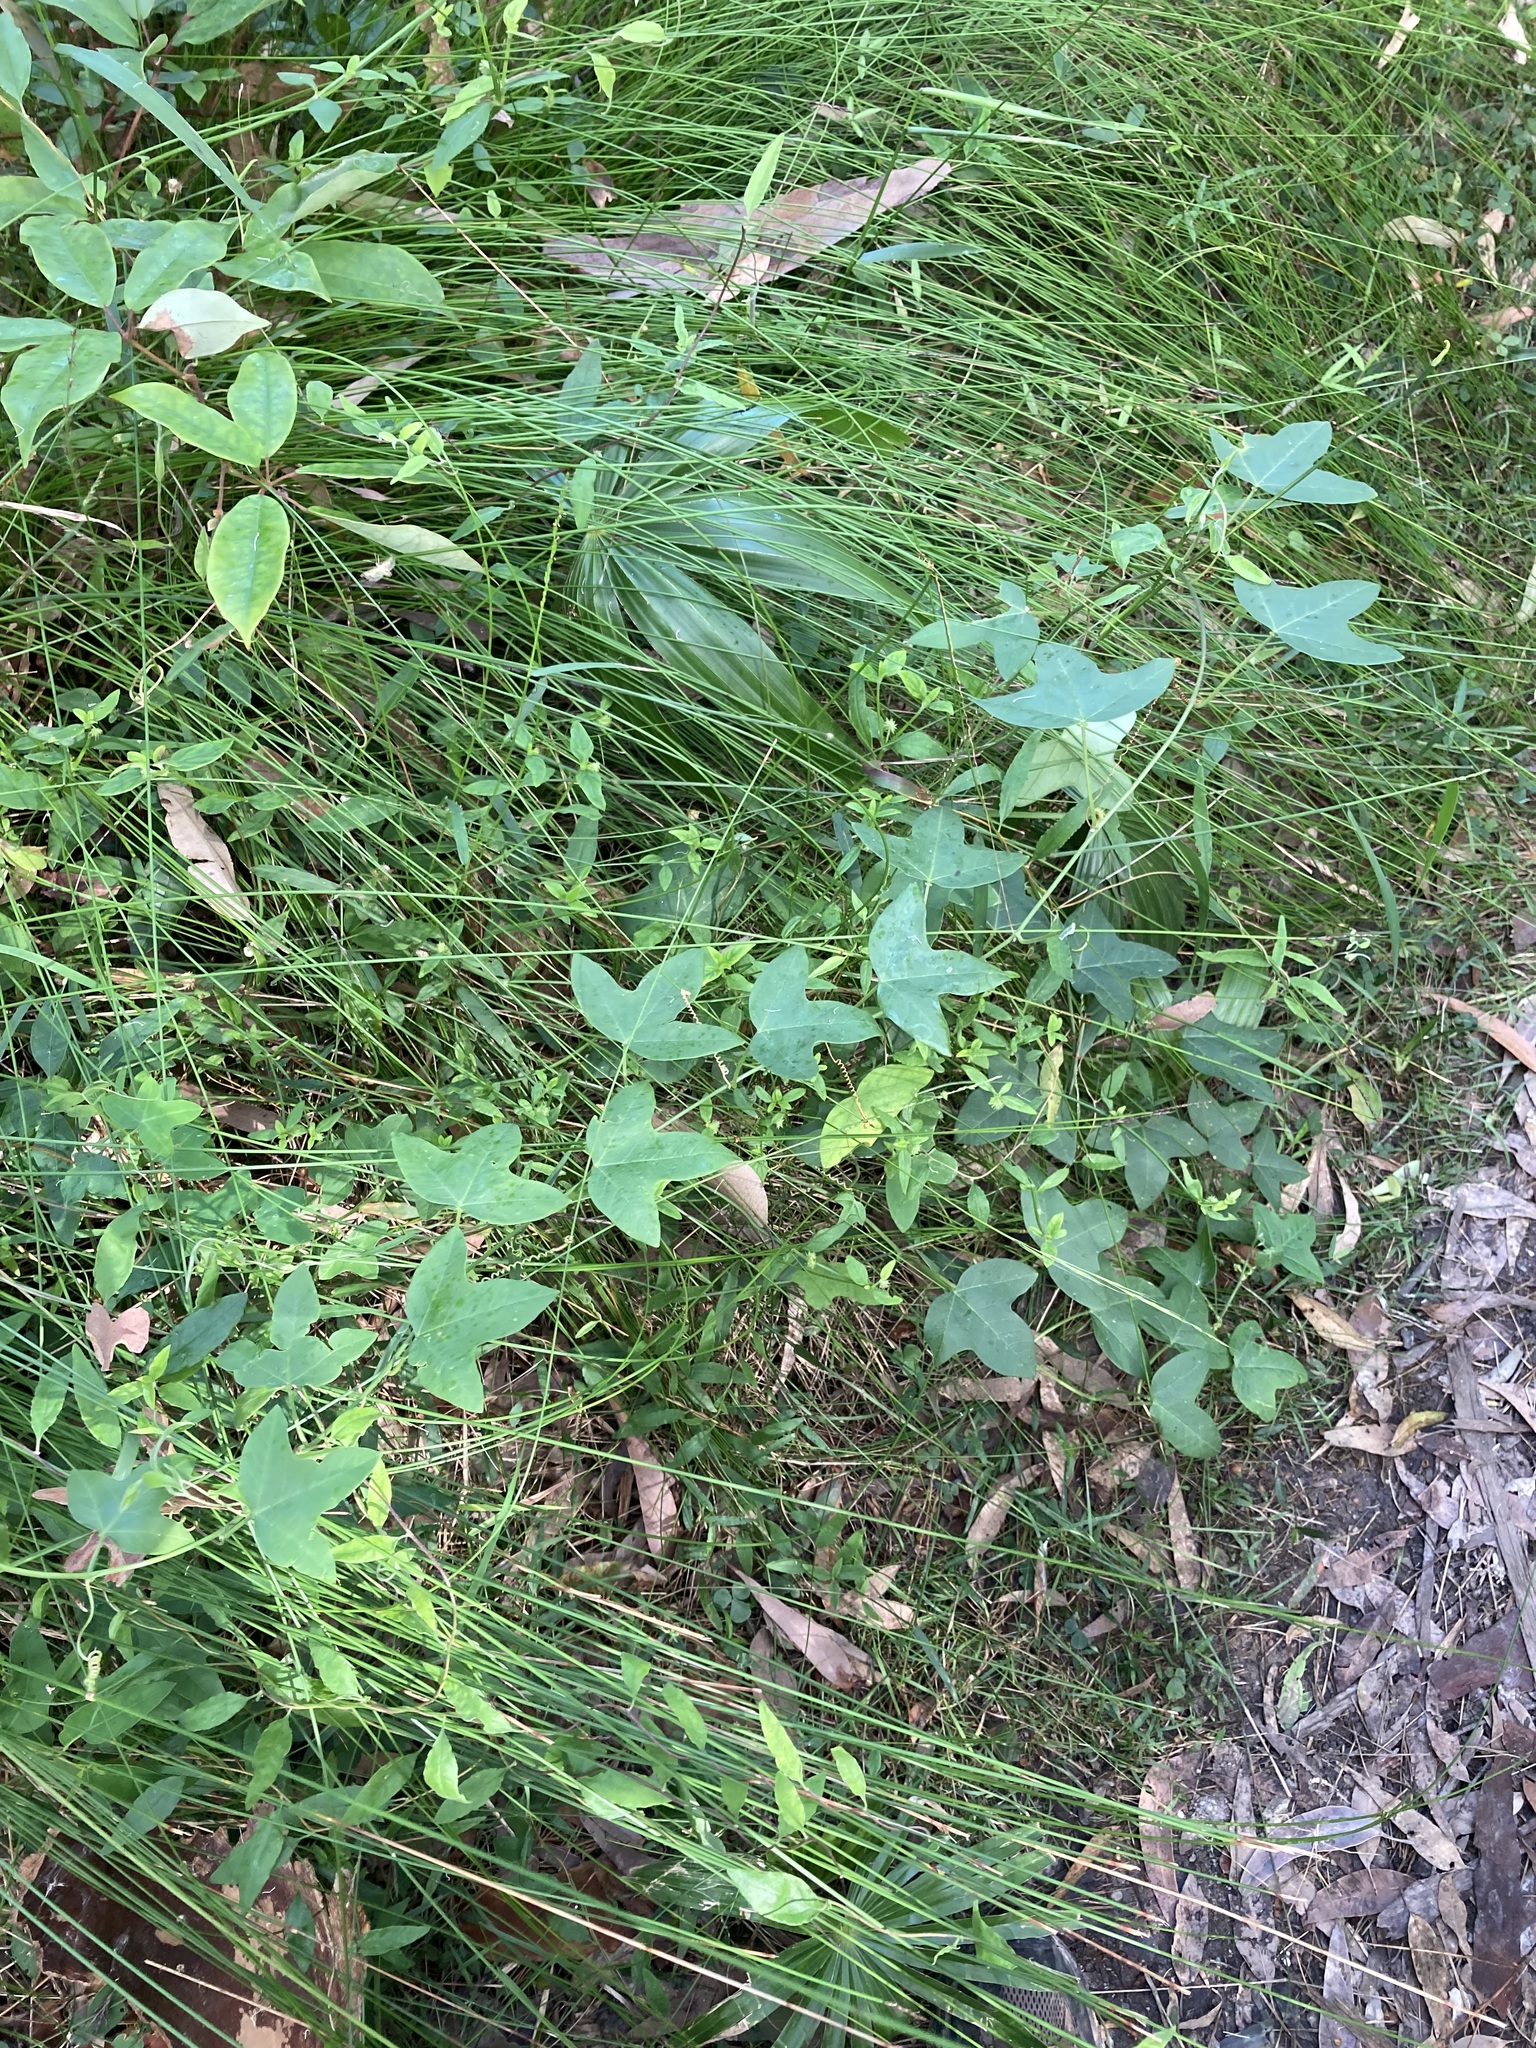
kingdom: Plantae
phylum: Tracheophyta
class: Magnoliopsida
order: Malpighiales
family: Passifloraceae
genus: Passiflora
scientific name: Passiflora herbertiana
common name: Yellow passionflower
